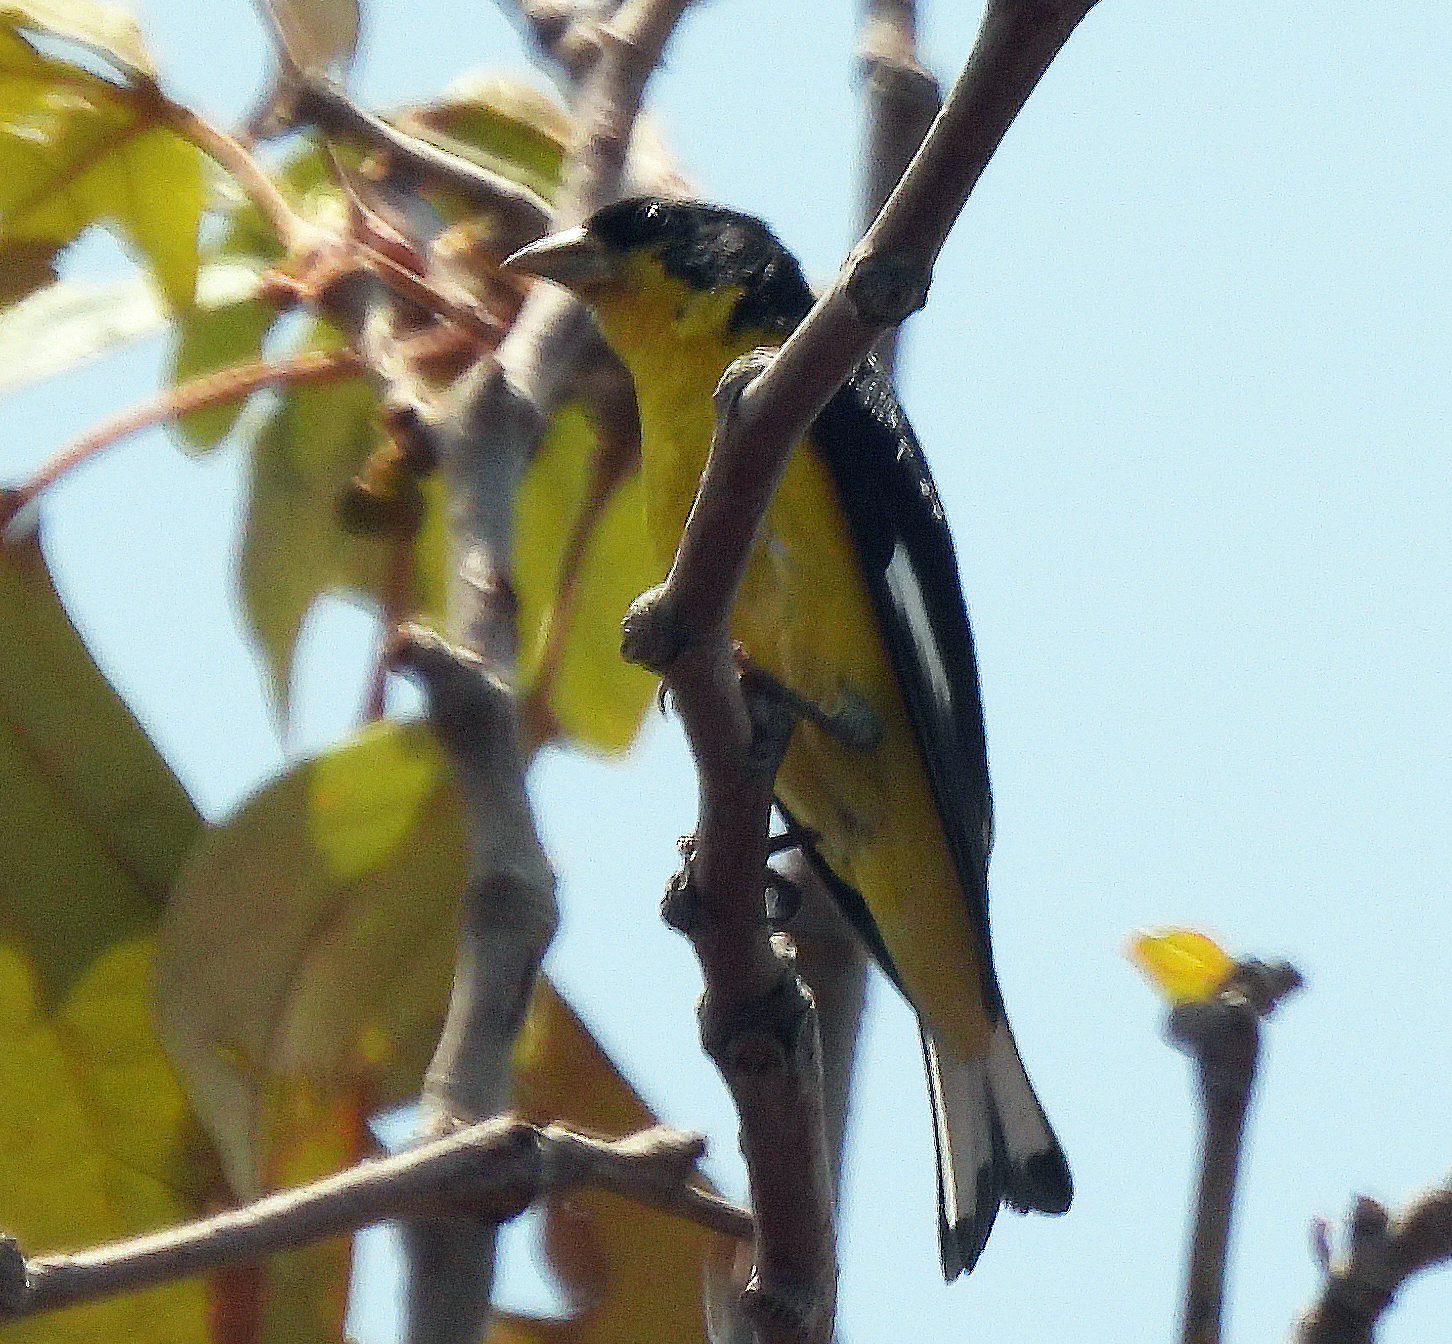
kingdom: Animalia
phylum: Chordata
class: Aves
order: Passeriformes
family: Fringillidae
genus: Spinus
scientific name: Spinus psaltria
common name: Lesser goldfinch
